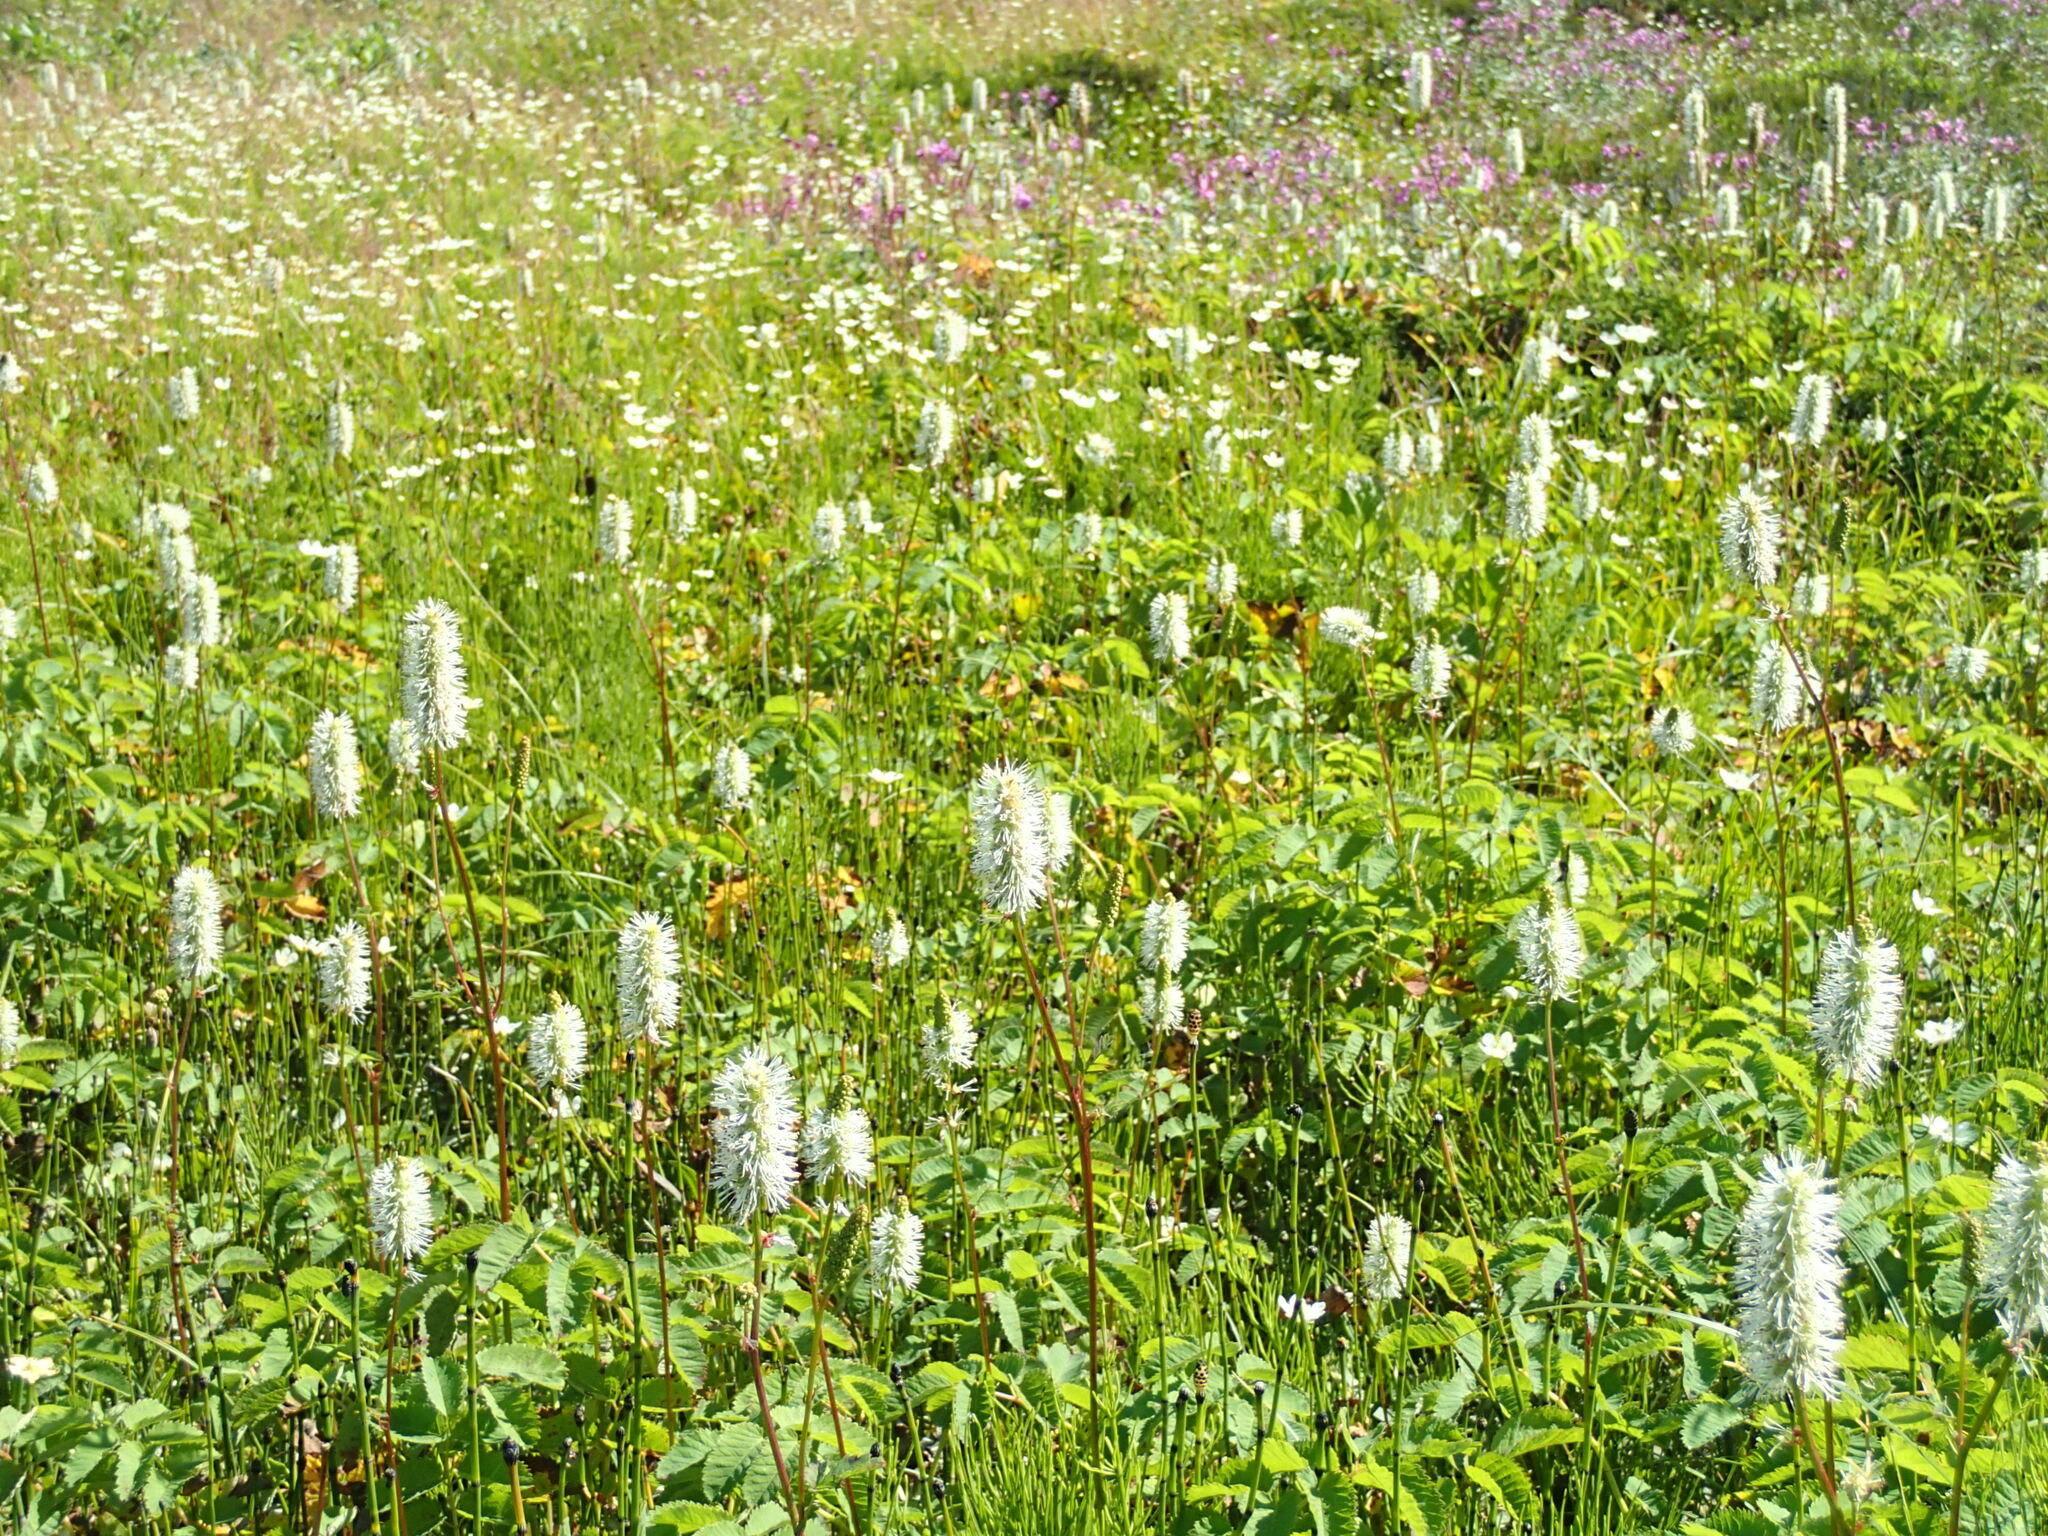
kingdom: Plantae
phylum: Tracheophyta
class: Magnoliopsida
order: Rosales
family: Rosaceae
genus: Sanguisorba
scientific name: Sanguisorba stipulata
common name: Sitka burnet
